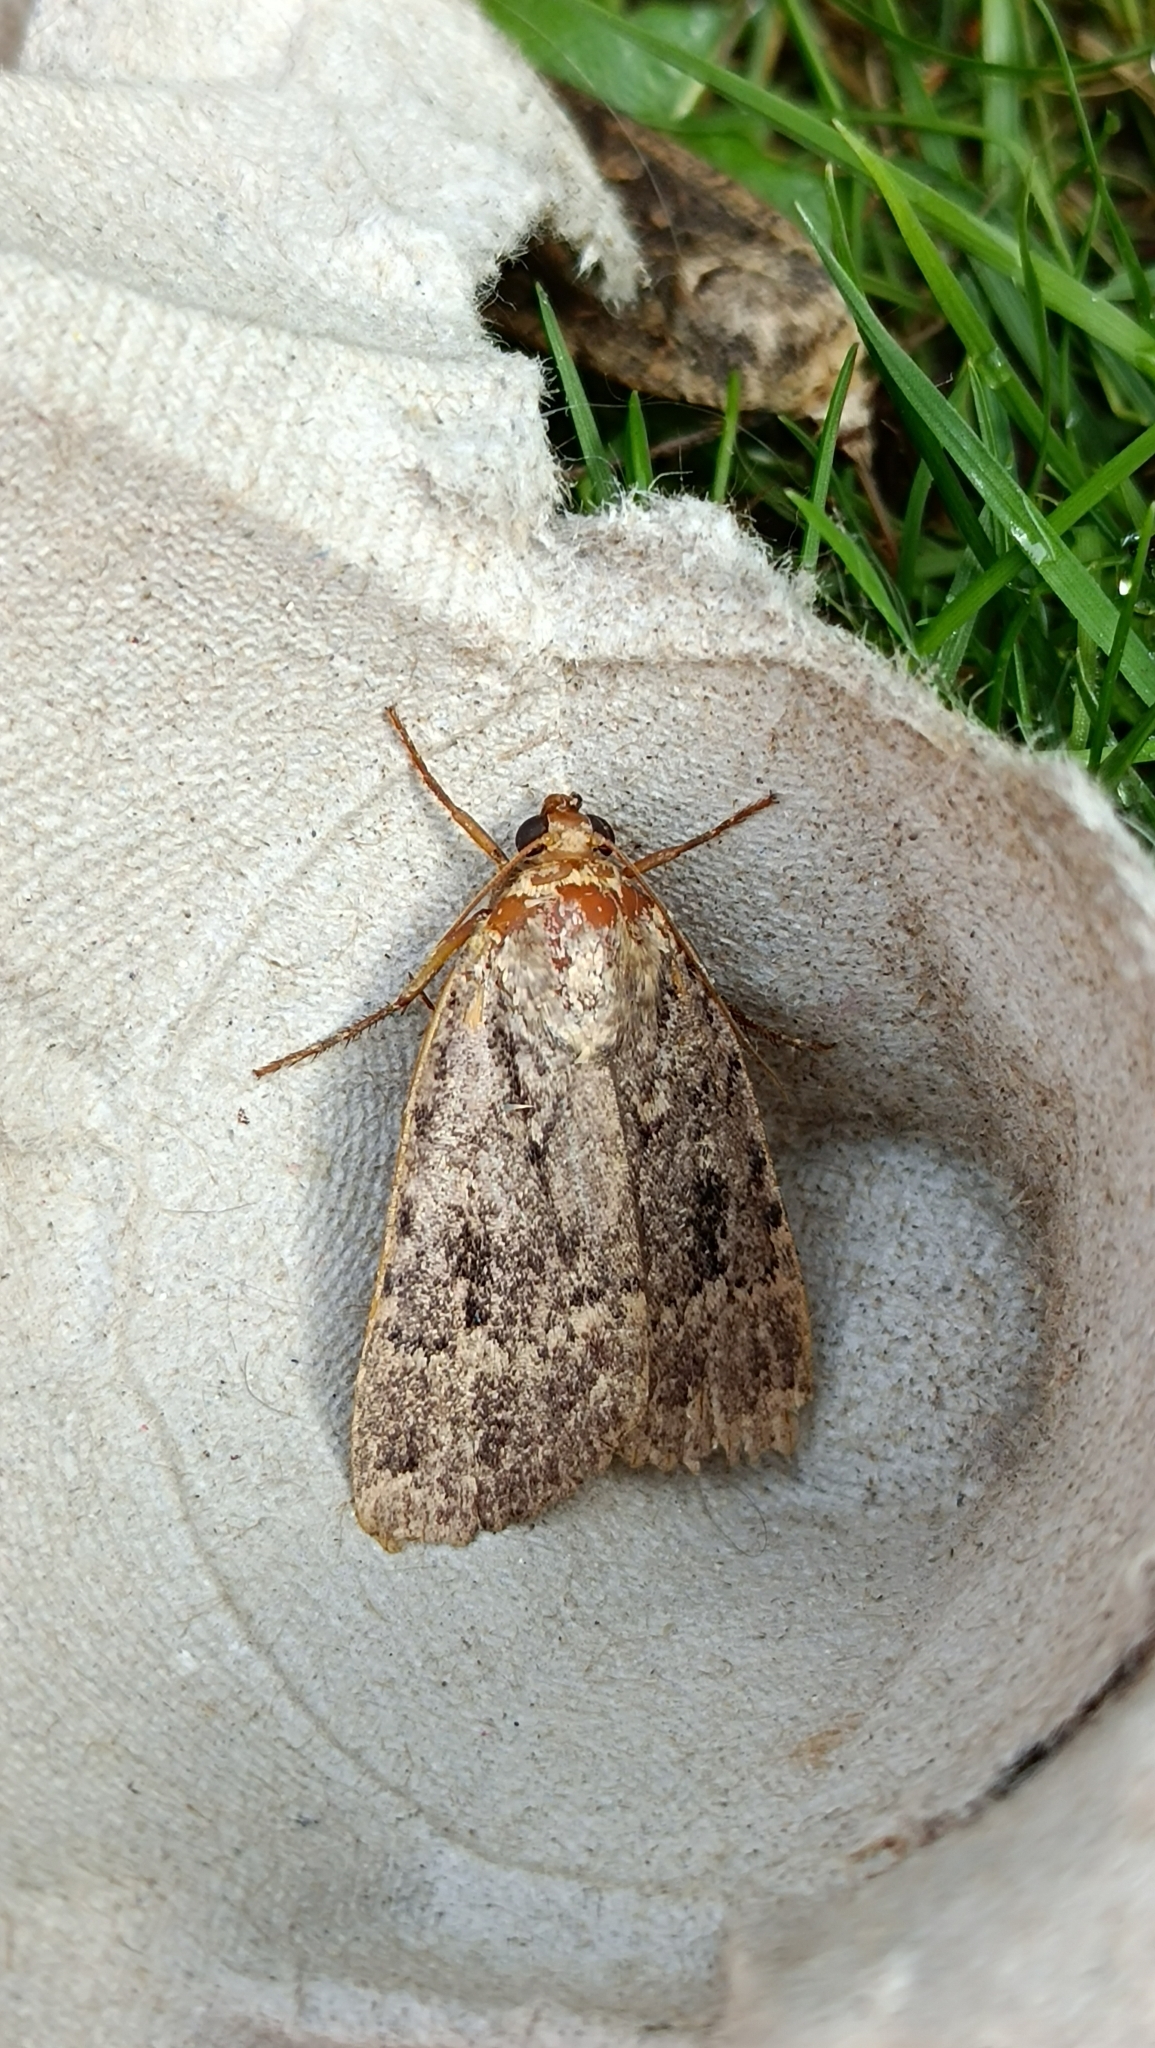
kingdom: Animalia
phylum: Arthropoda
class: Insecta
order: Lepidoptera
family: Noctuidae
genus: Amphipyra
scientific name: Amphipyra pyramidea
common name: Copper underwing
